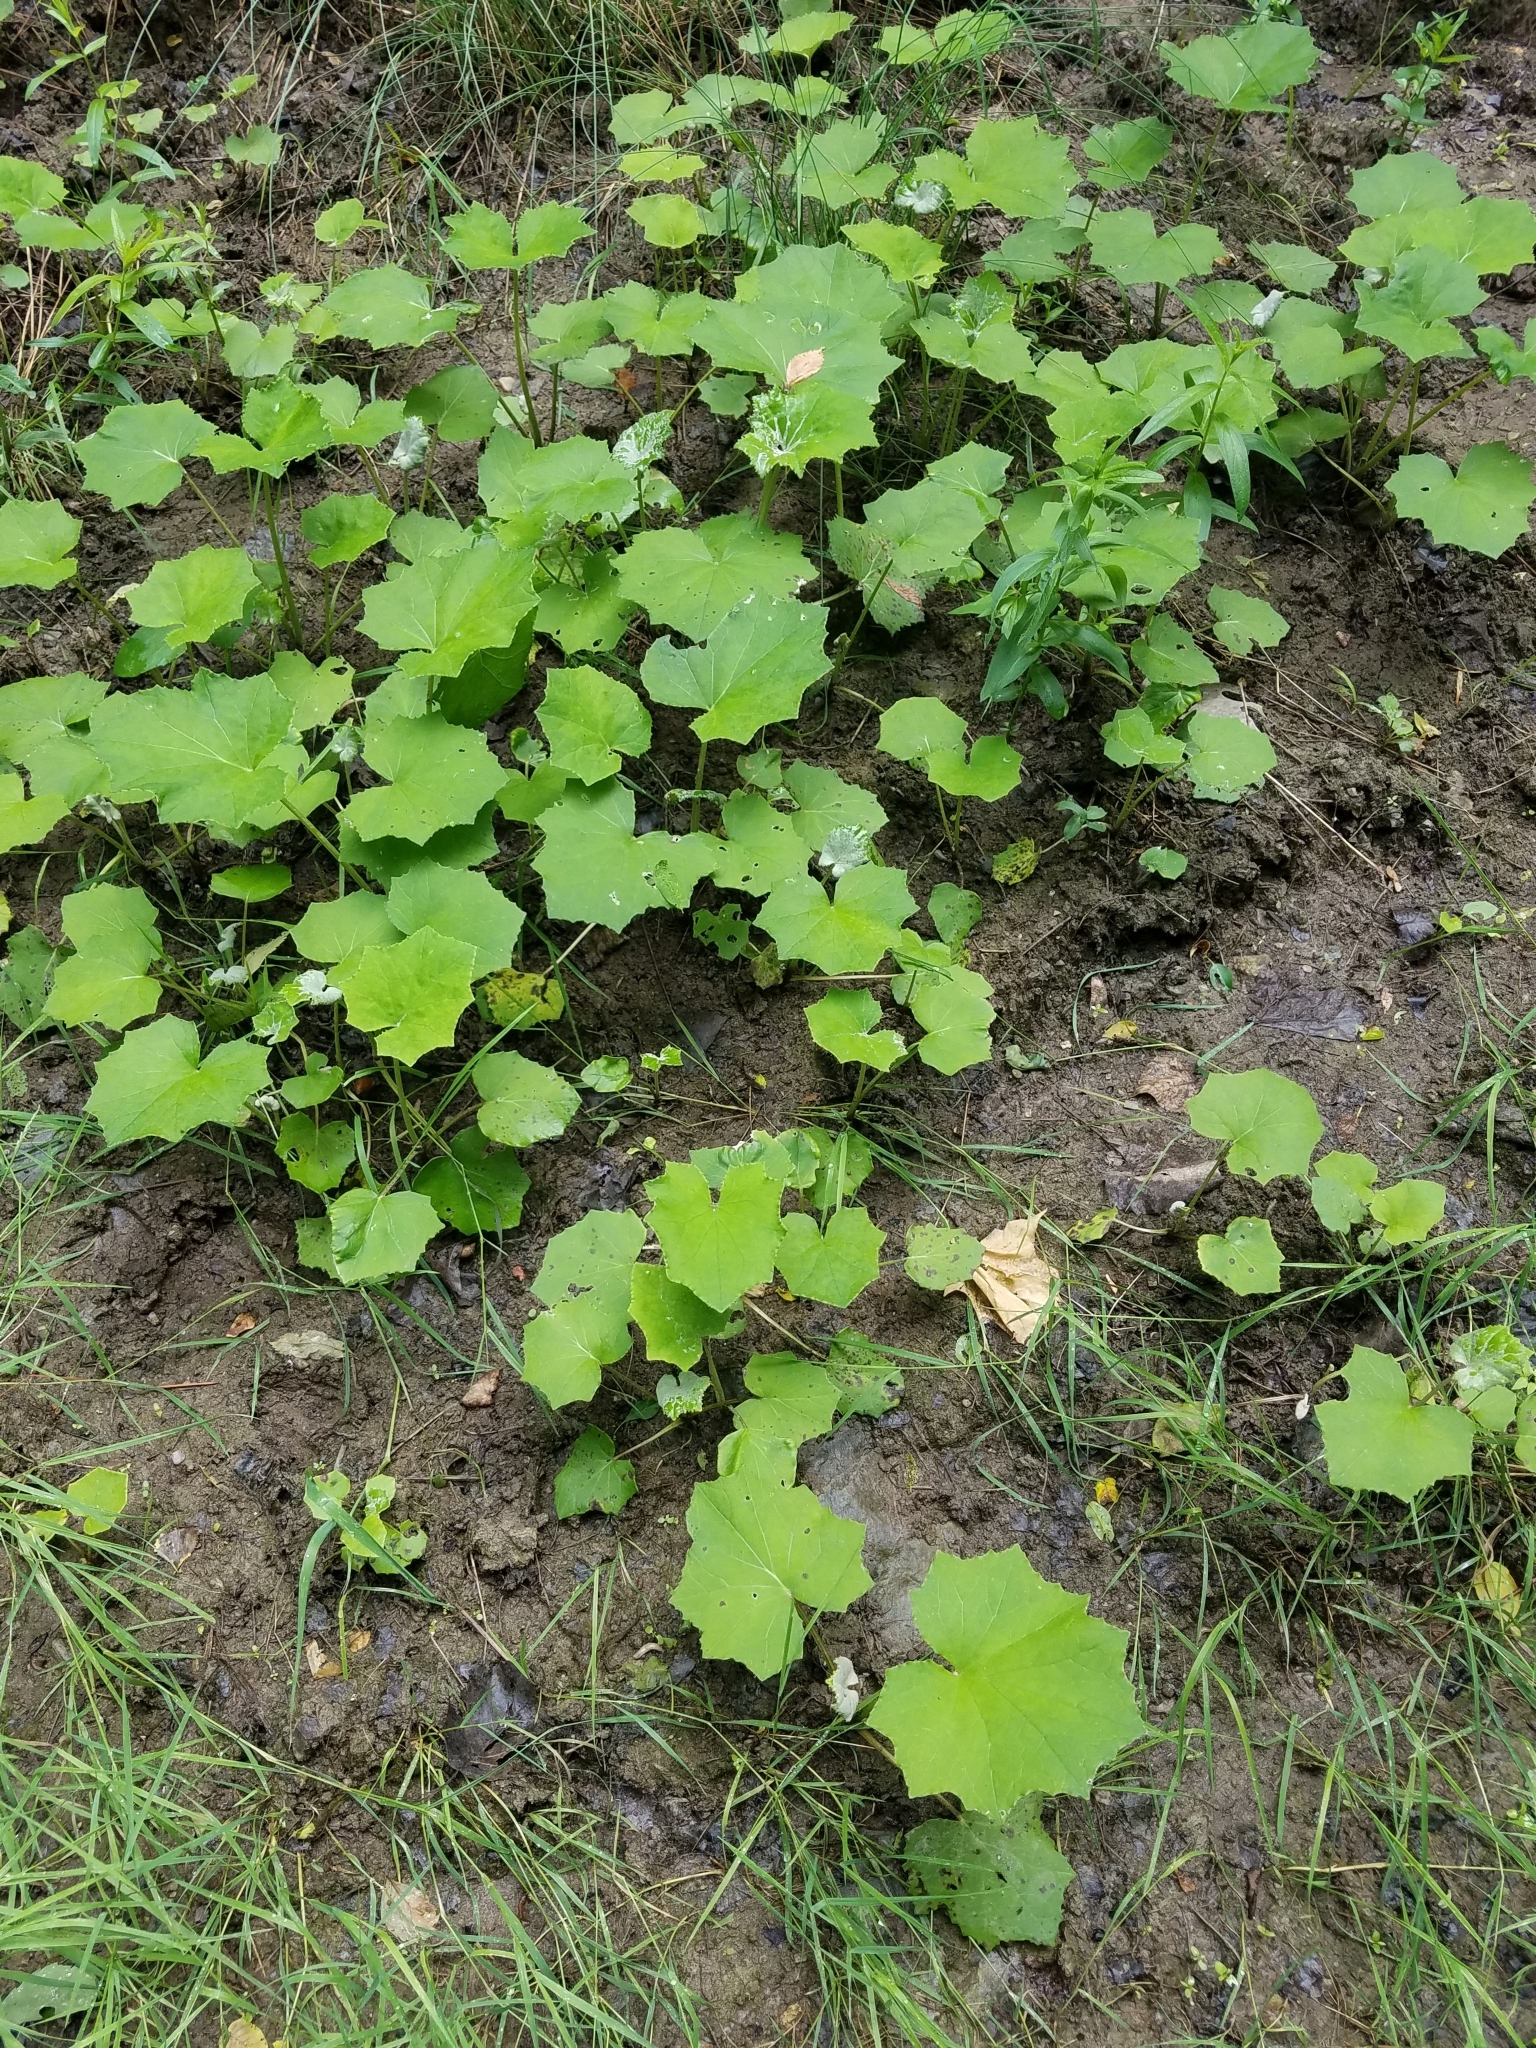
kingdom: Plantae
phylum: Tracheophyta
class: Magnoliopsida
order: Asterales
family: Asteraceae
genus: Tussilago
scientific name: Tussilago farfara
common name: Coltsfoot
